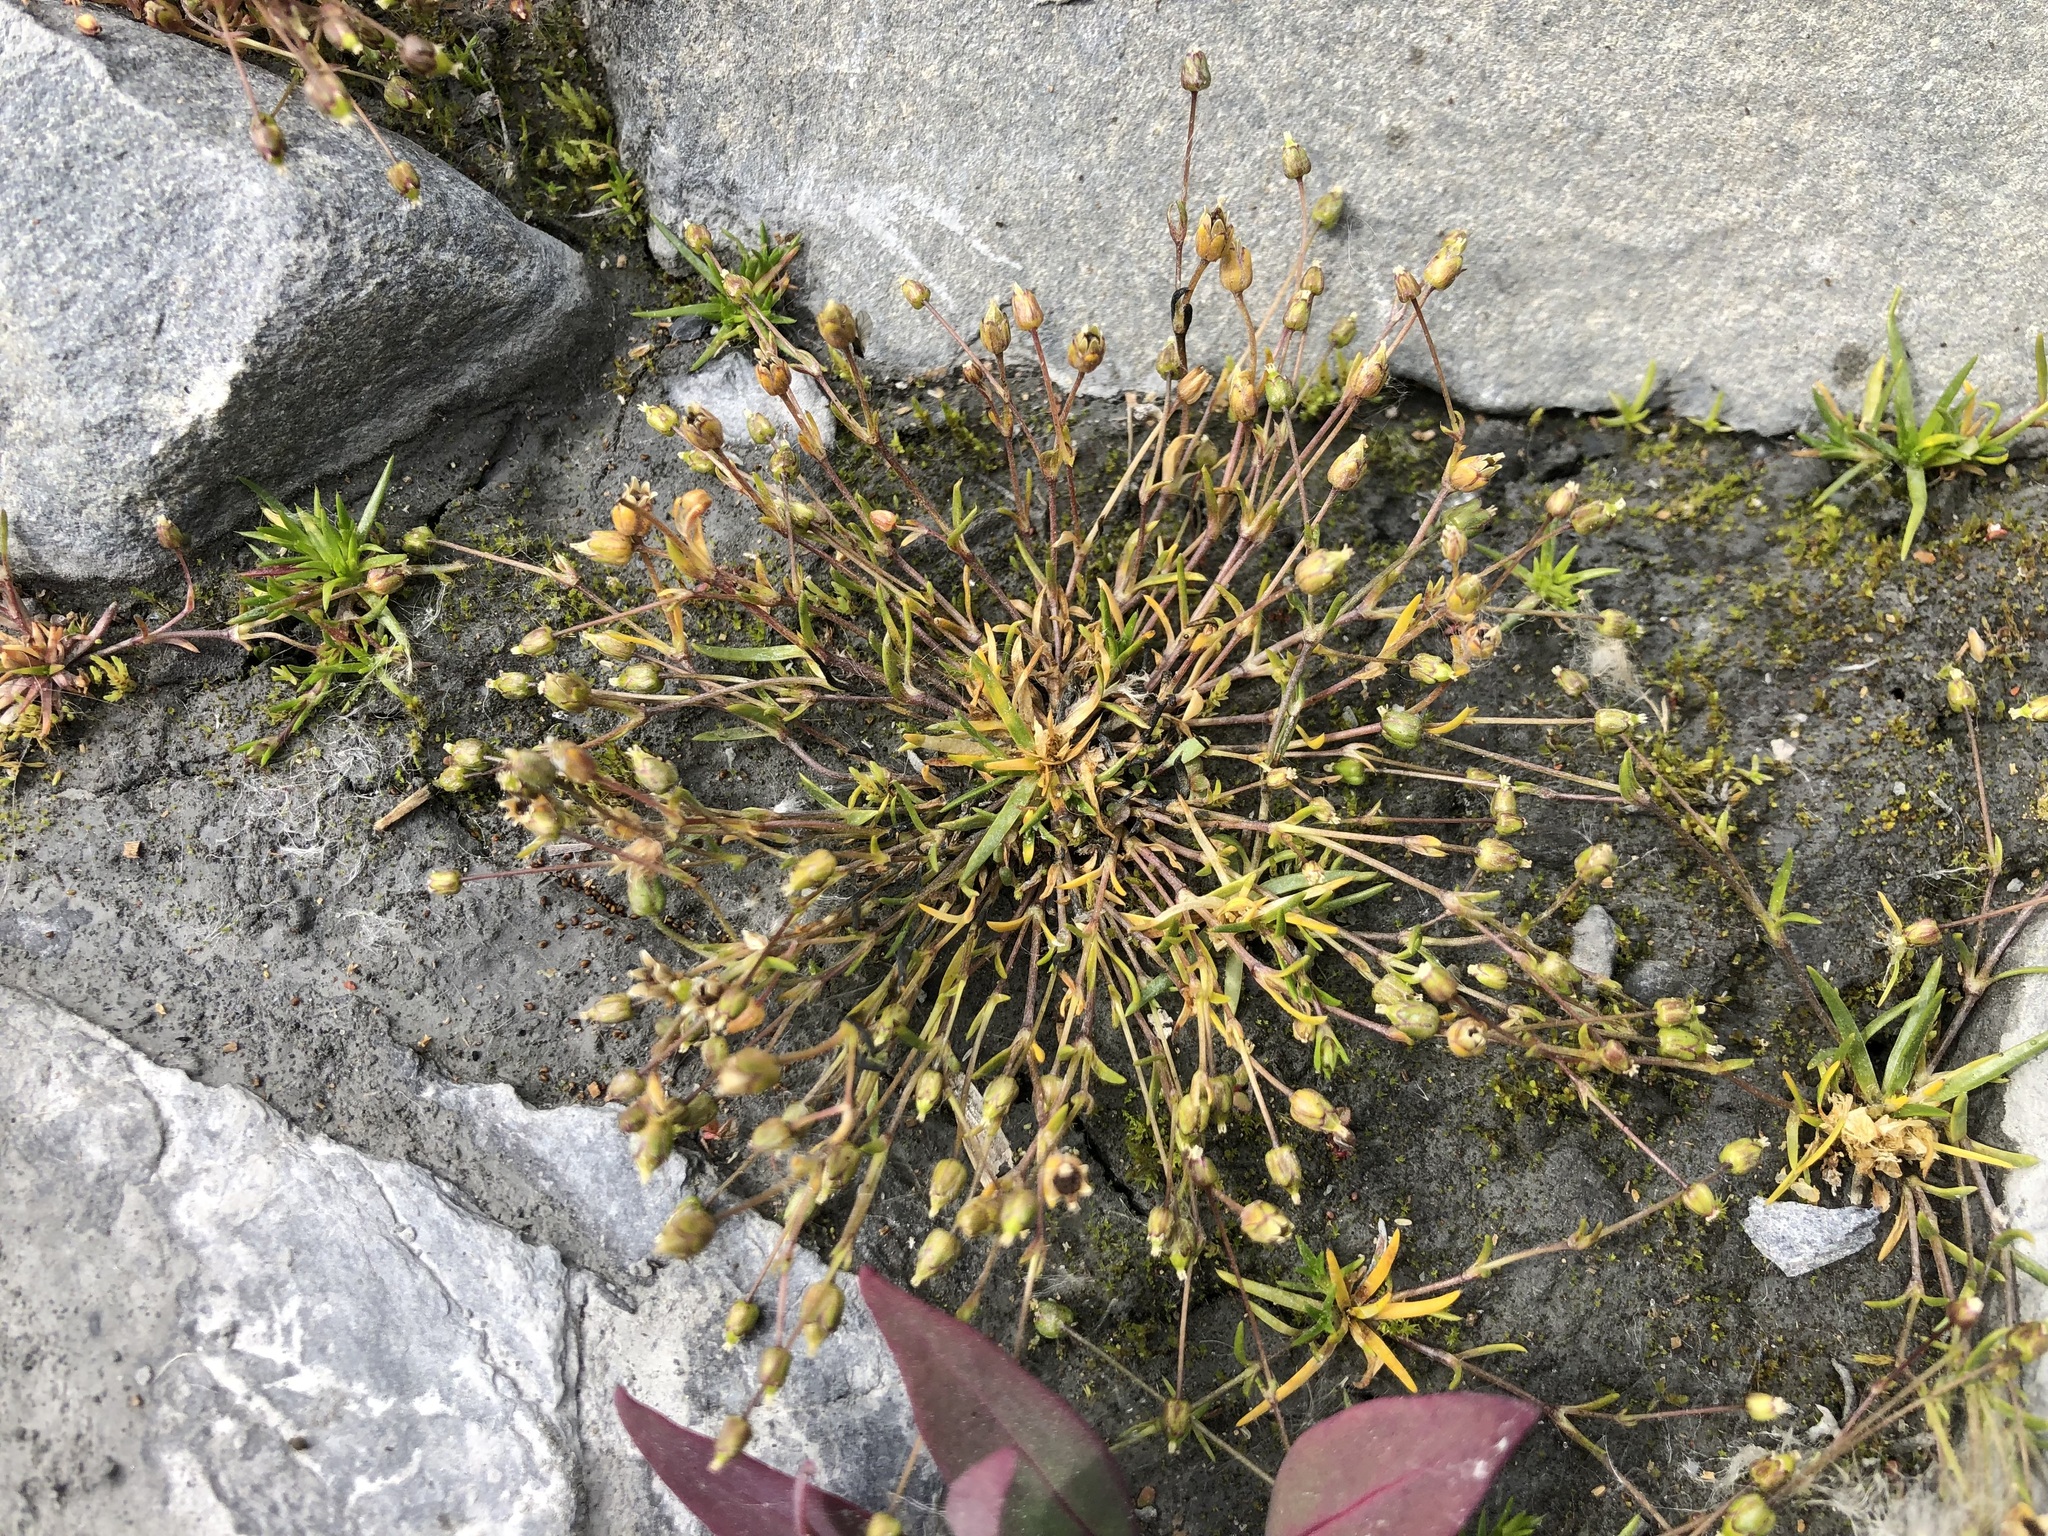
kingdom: Plantae
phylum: Tracheophyta
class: Magnoliopsida
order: Caryophyllales
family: Caryophyllaceae
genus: Sagina
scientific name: Sagina nivalis
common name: Snow pearlwort
